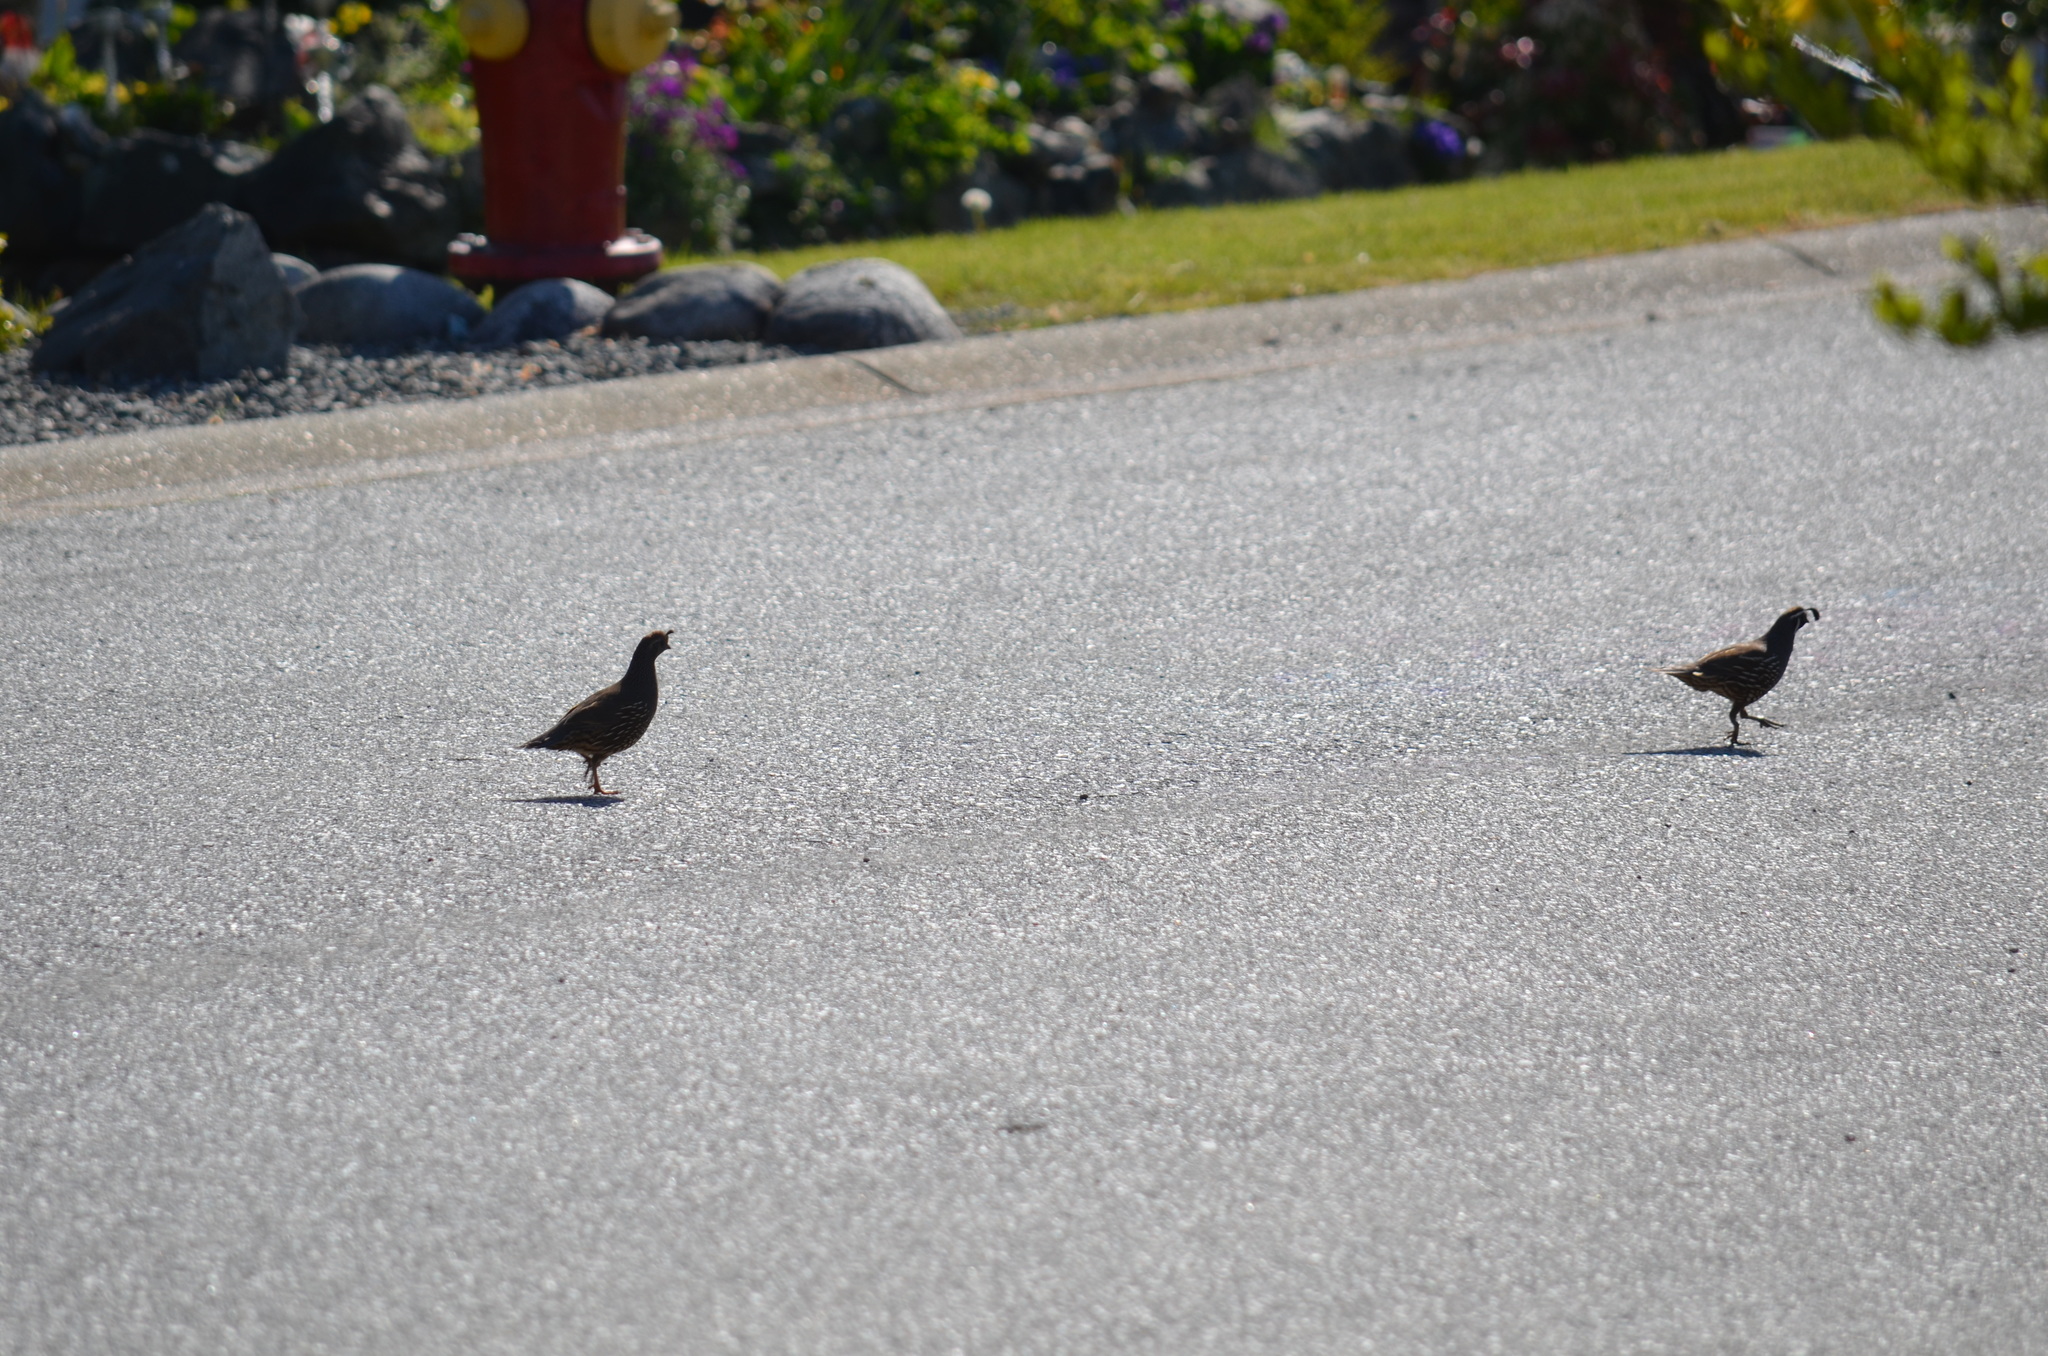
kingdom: Animalia
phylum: Chordata
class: Aves
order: Galliformes
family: Odontophoridae
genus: Callipepla
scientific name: Callipepla californica
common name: California quail
